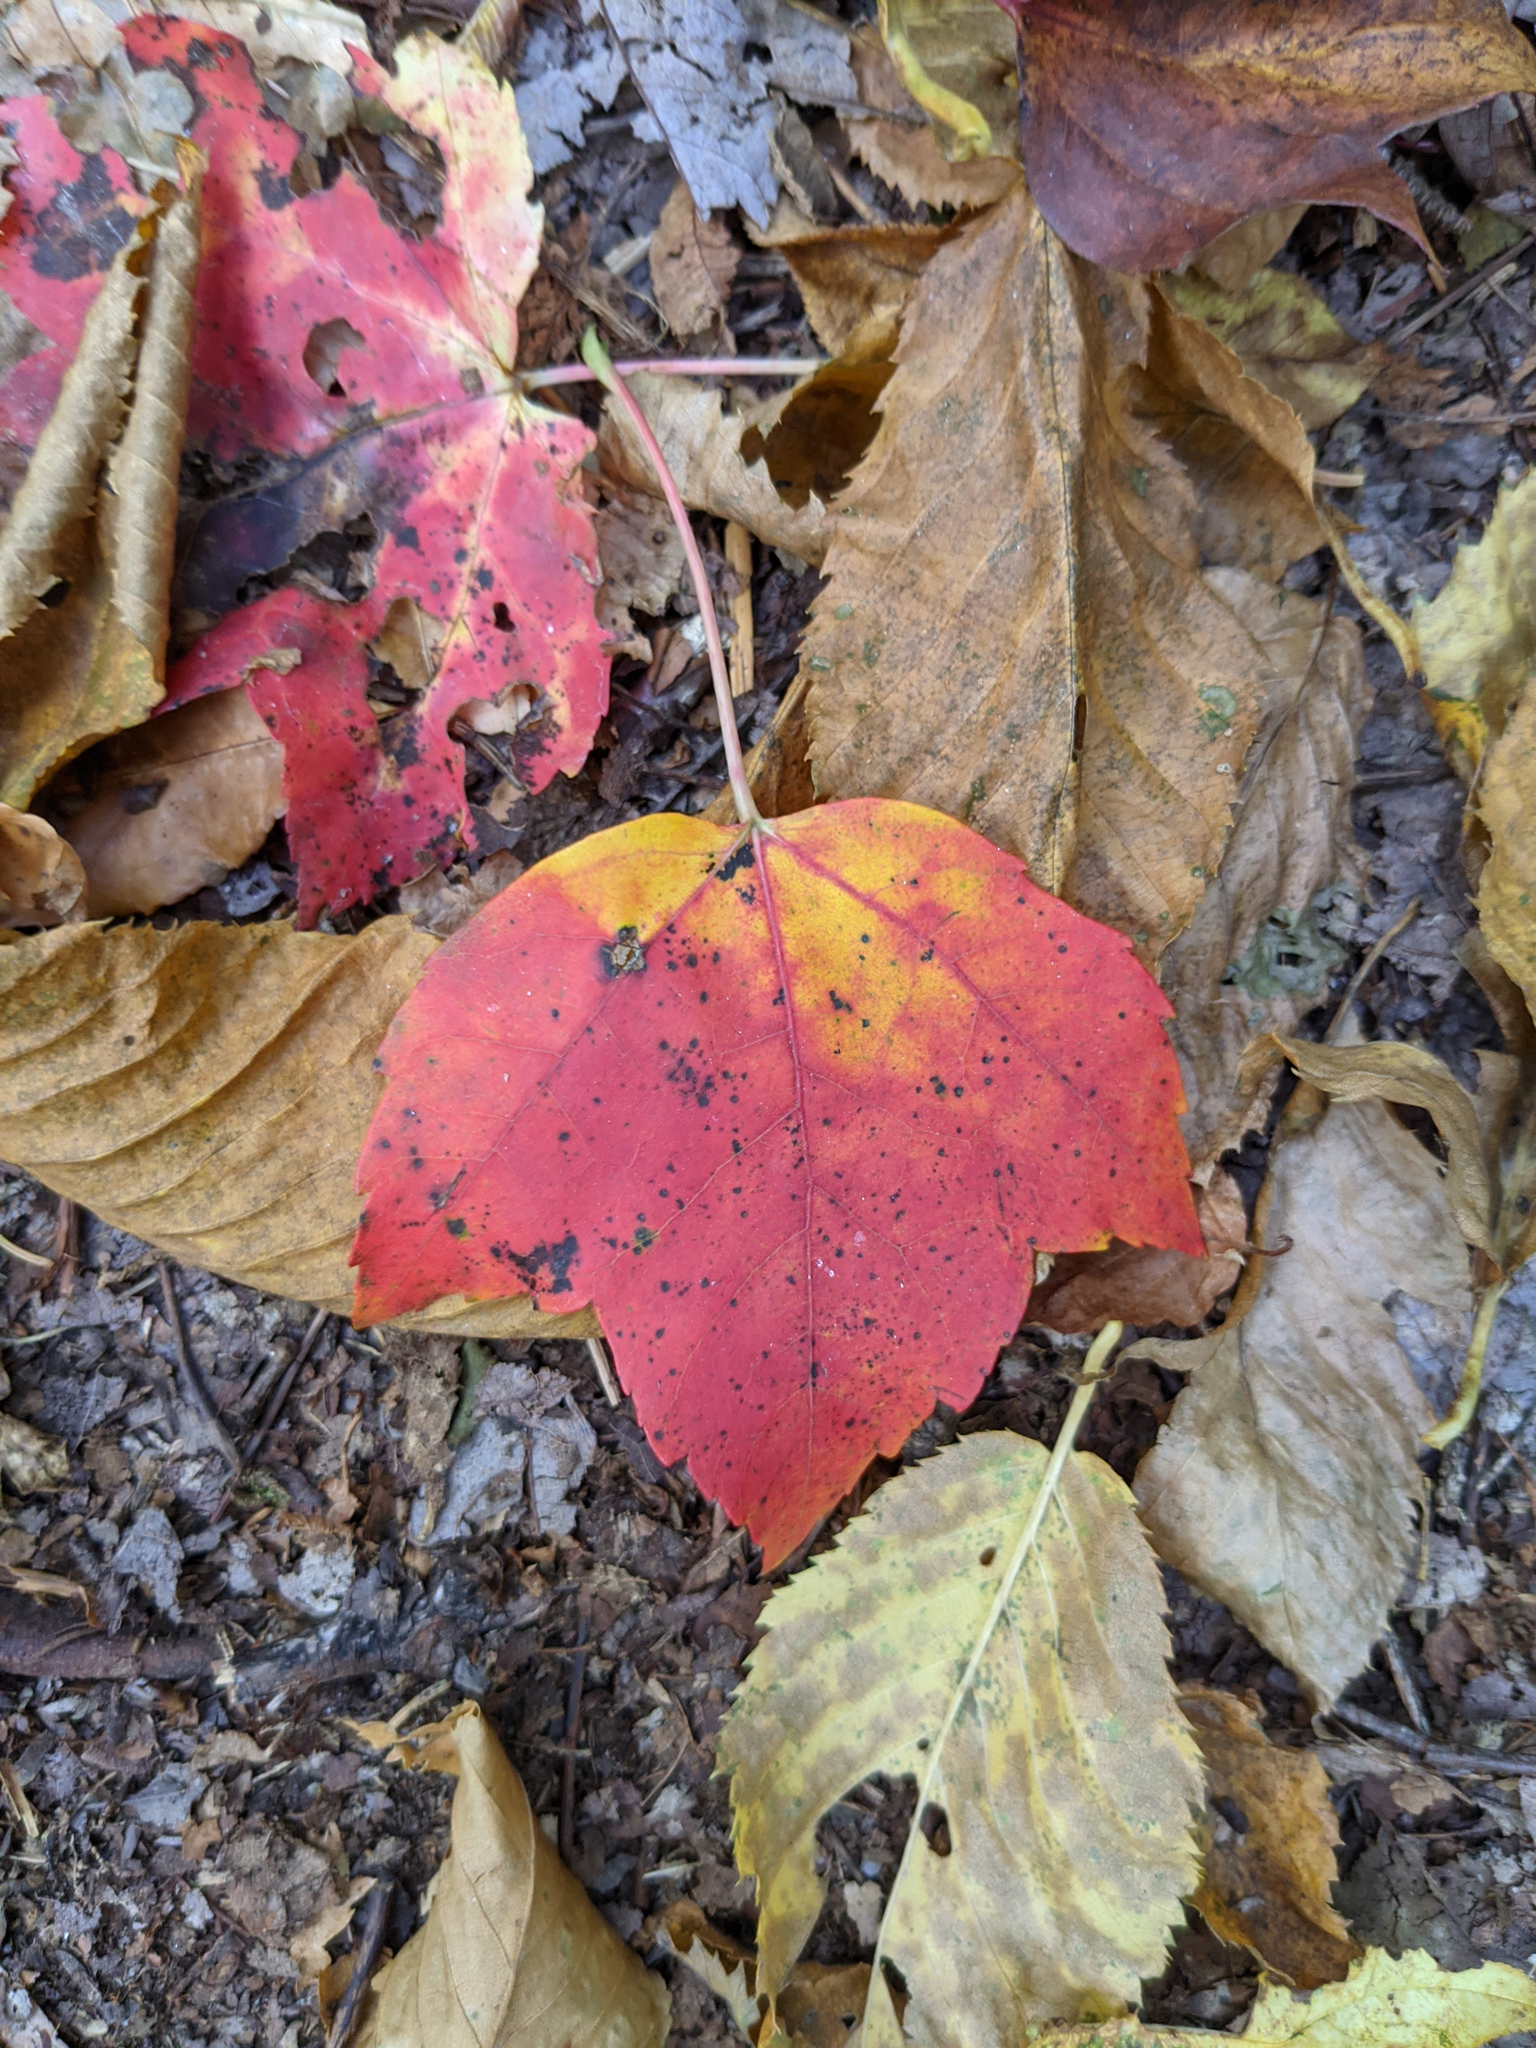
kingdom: Plantae
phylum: Tracheophyta
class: Magnoliopsida
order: Sapindales
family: Sapindaceae
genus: Acer
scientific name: Acer rubrum
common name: Red maple
